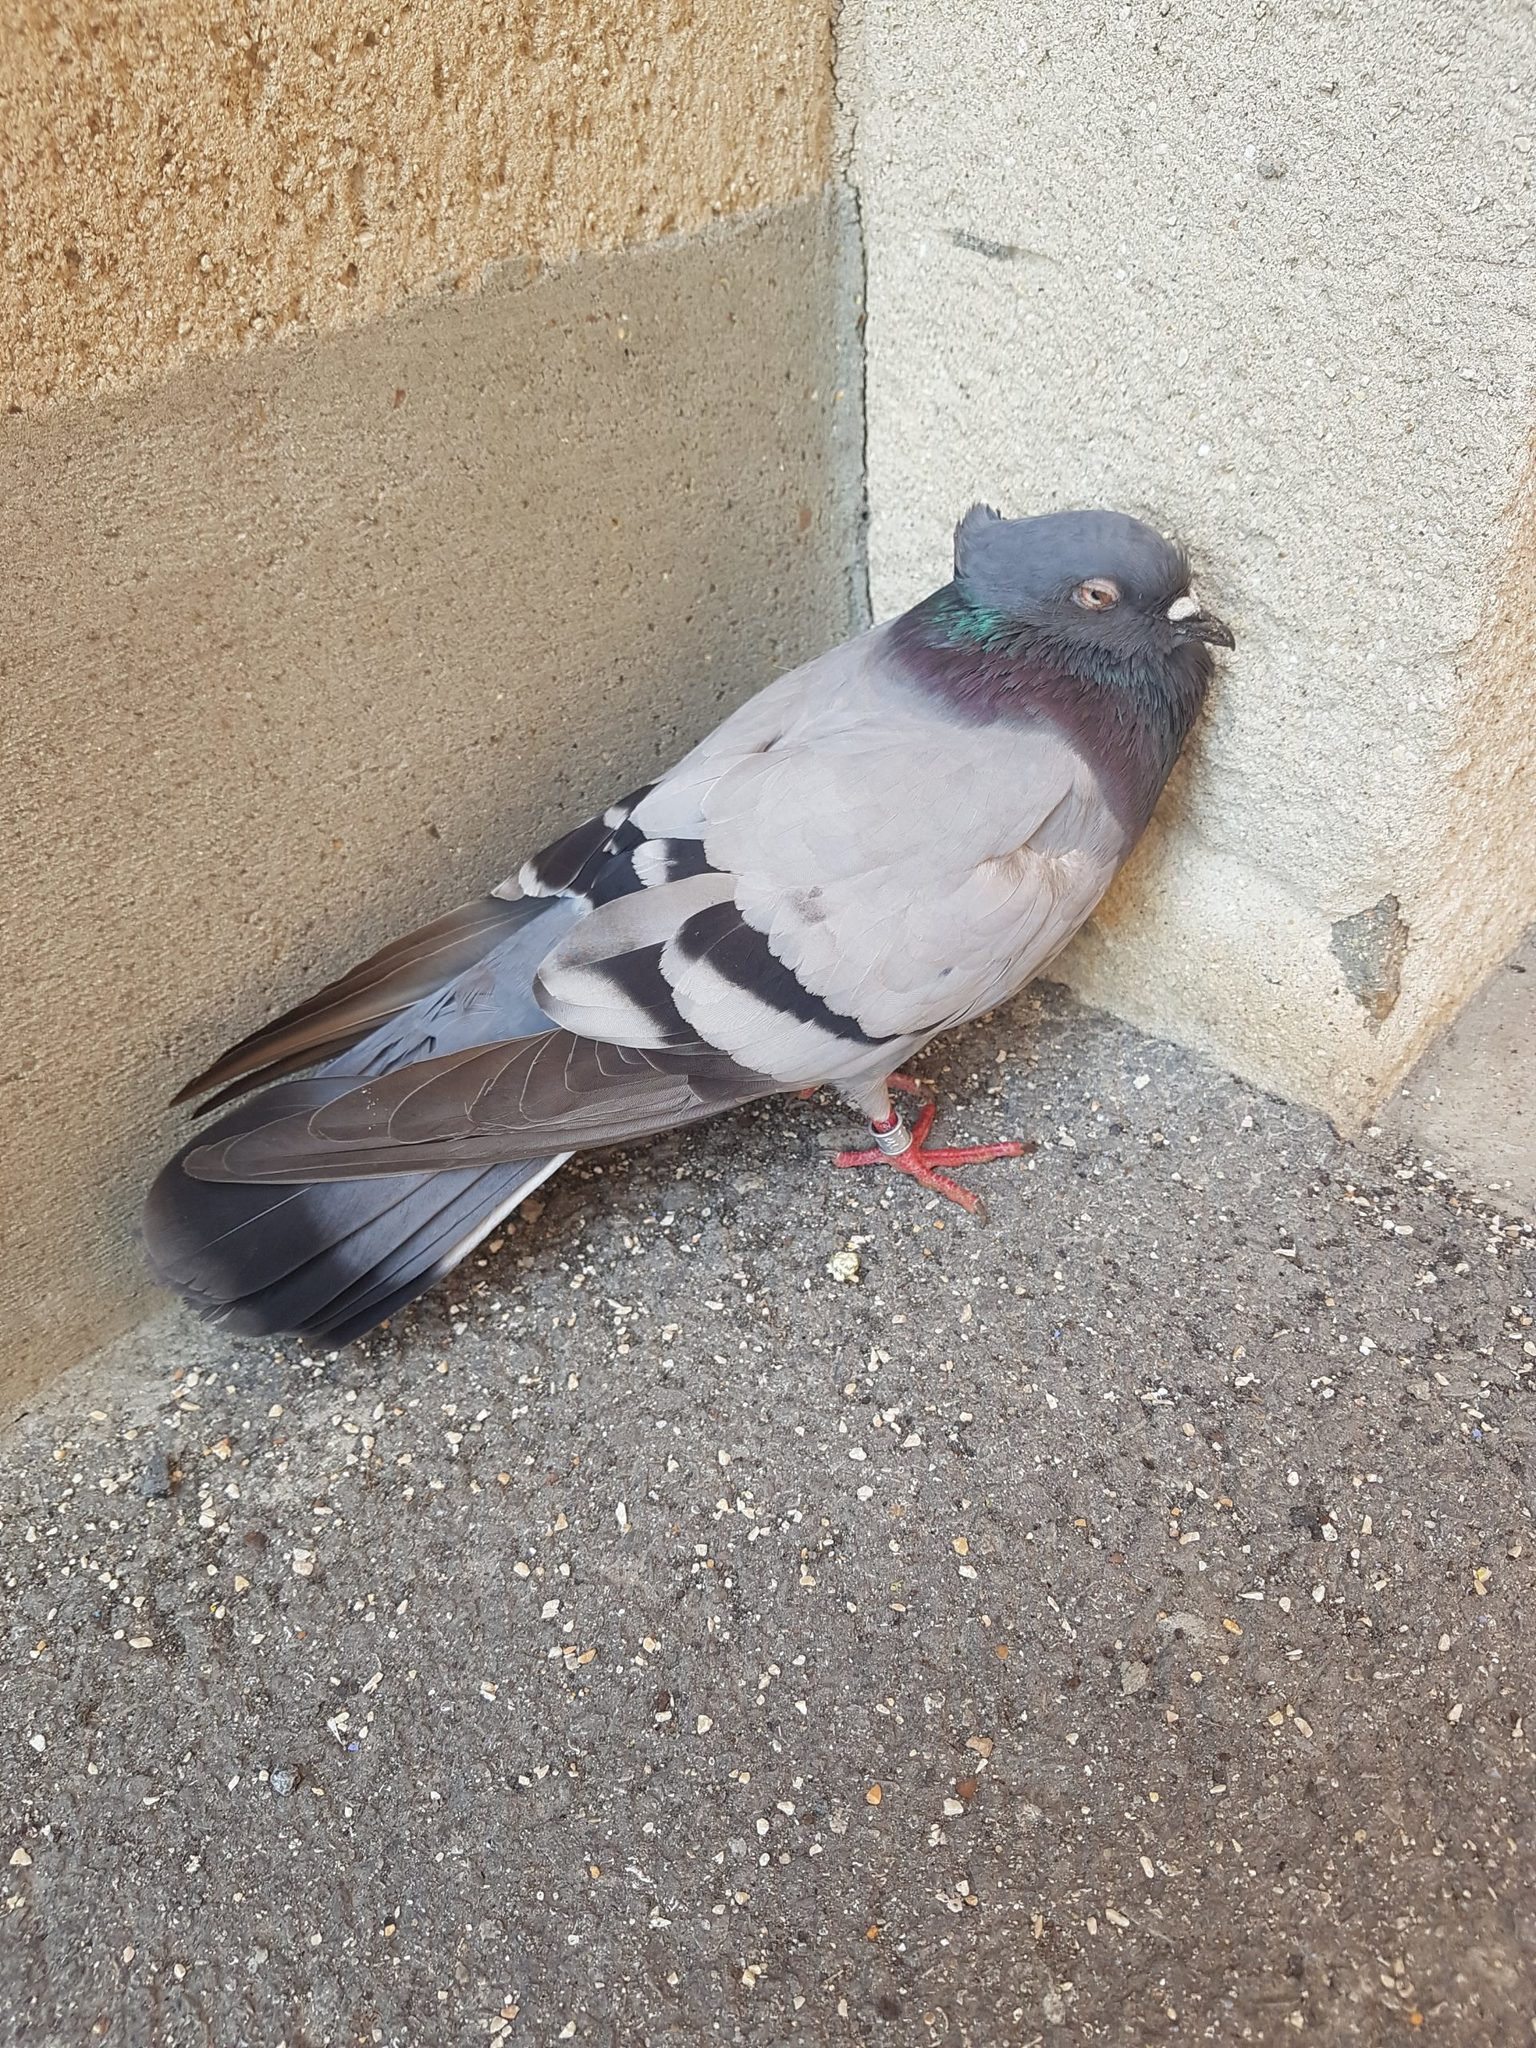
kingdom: Animalia
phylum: Chordata
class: Aves
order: Columbiformes
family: Columbidae
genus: Columba
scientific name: Columba livia
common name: Rock pigeon
